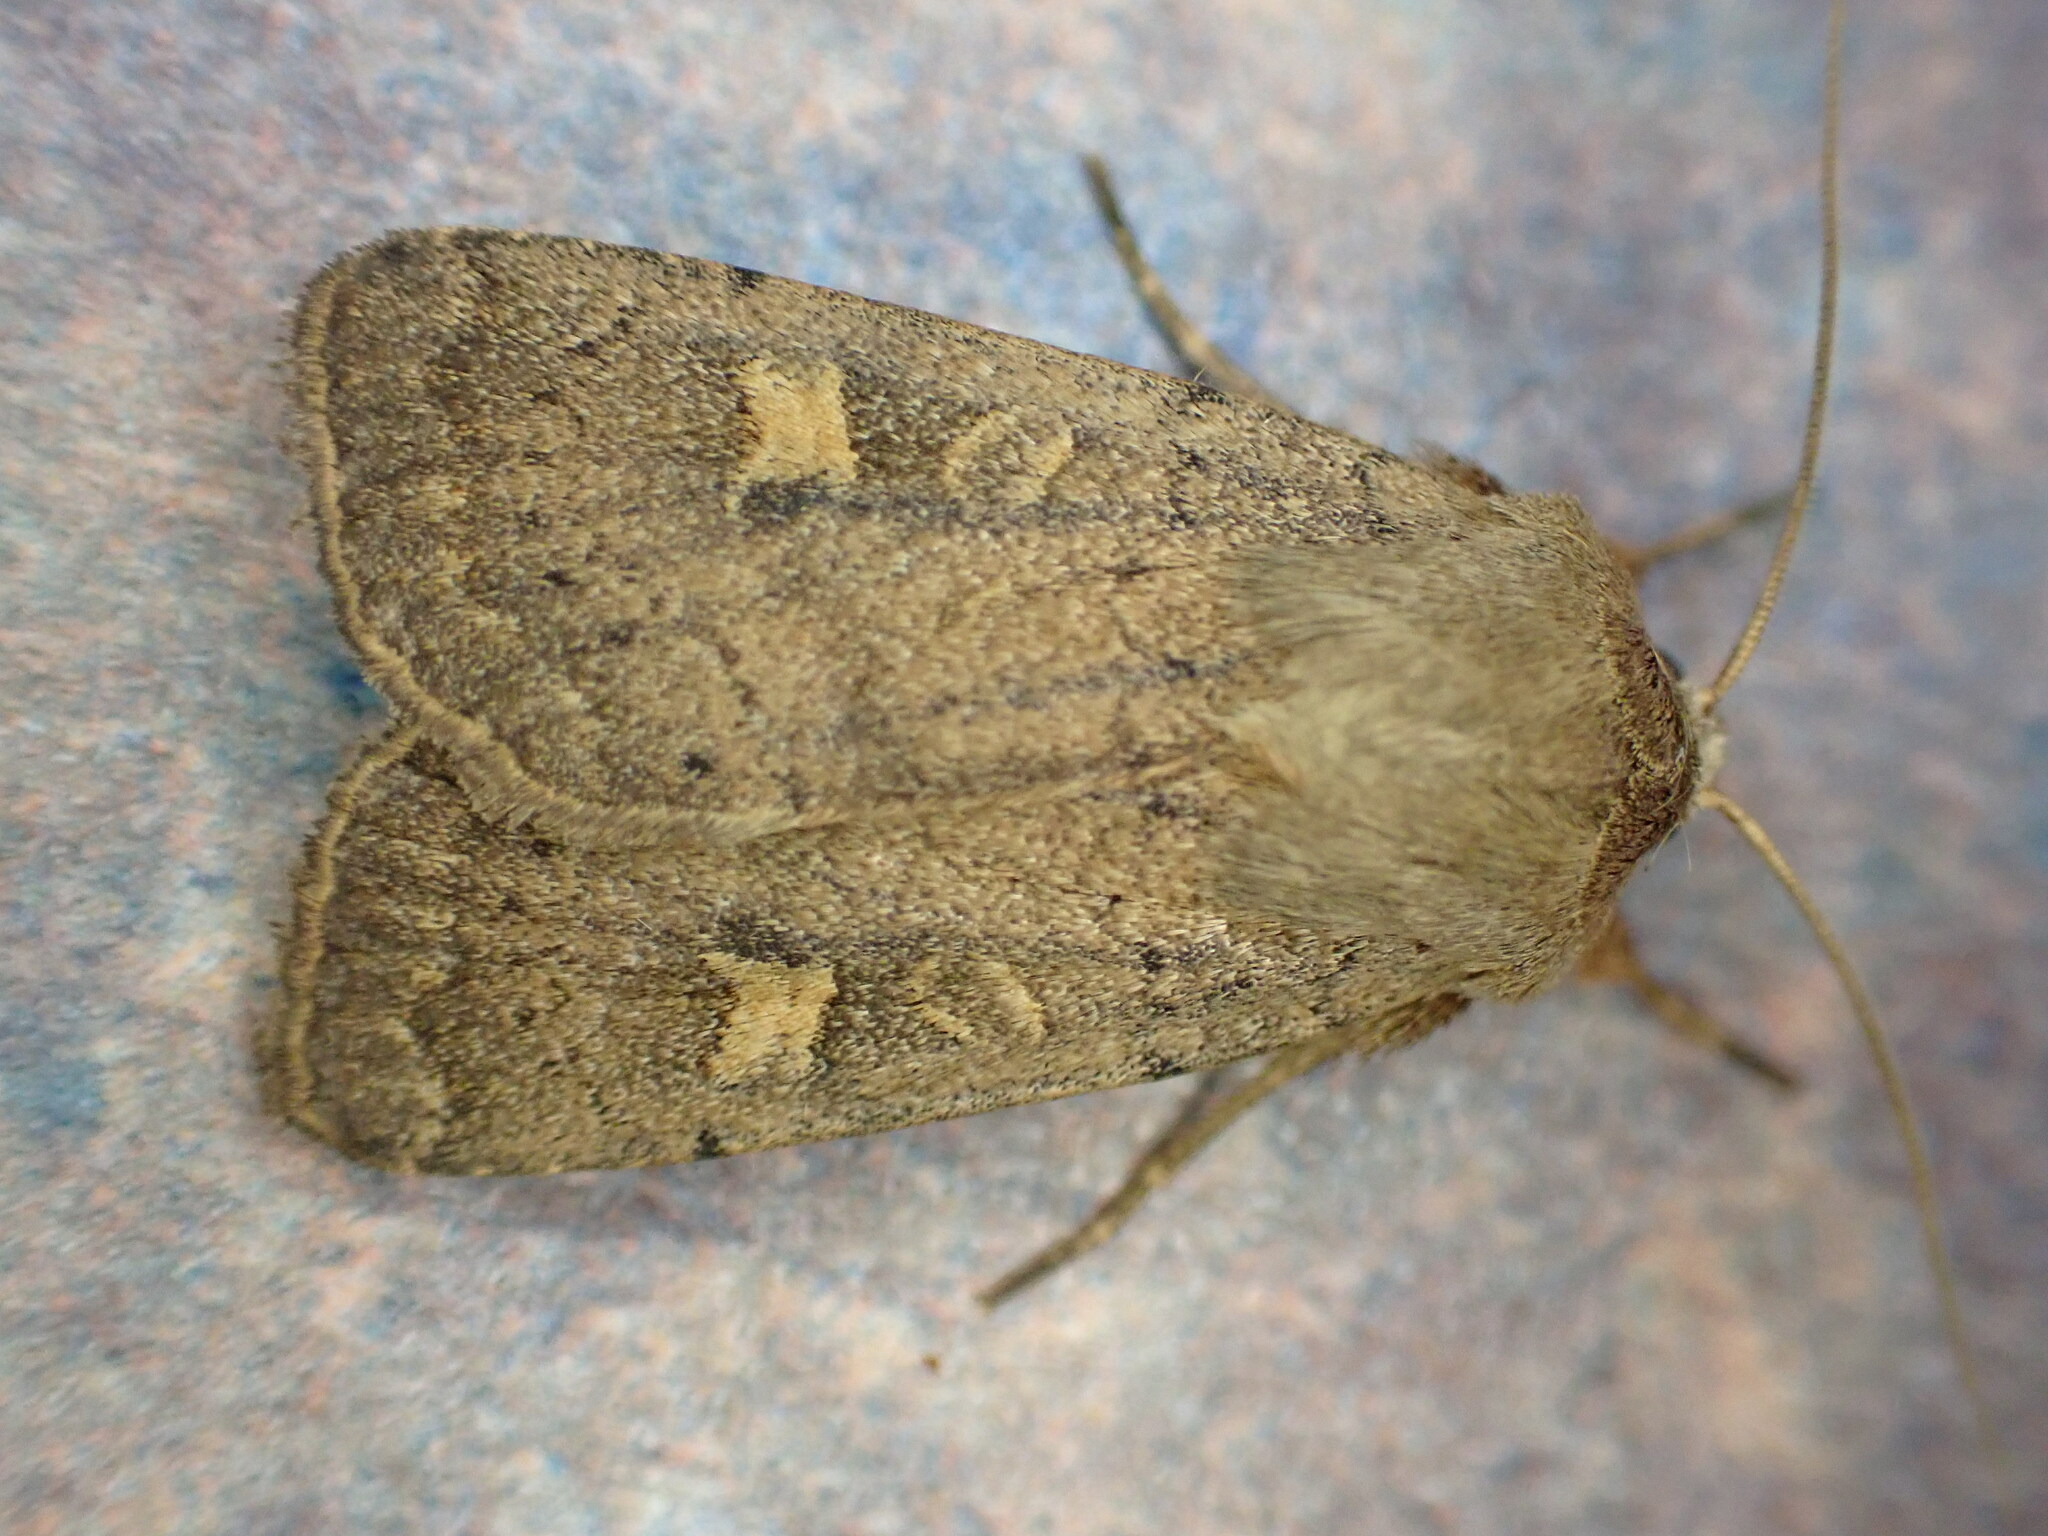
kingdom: Animalia
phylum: Arthropoda
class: Insecta
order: Lepidoptera
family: Noctuidae
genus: Xestia
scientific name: Xestia xanthographa
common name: Square-spot rustic
